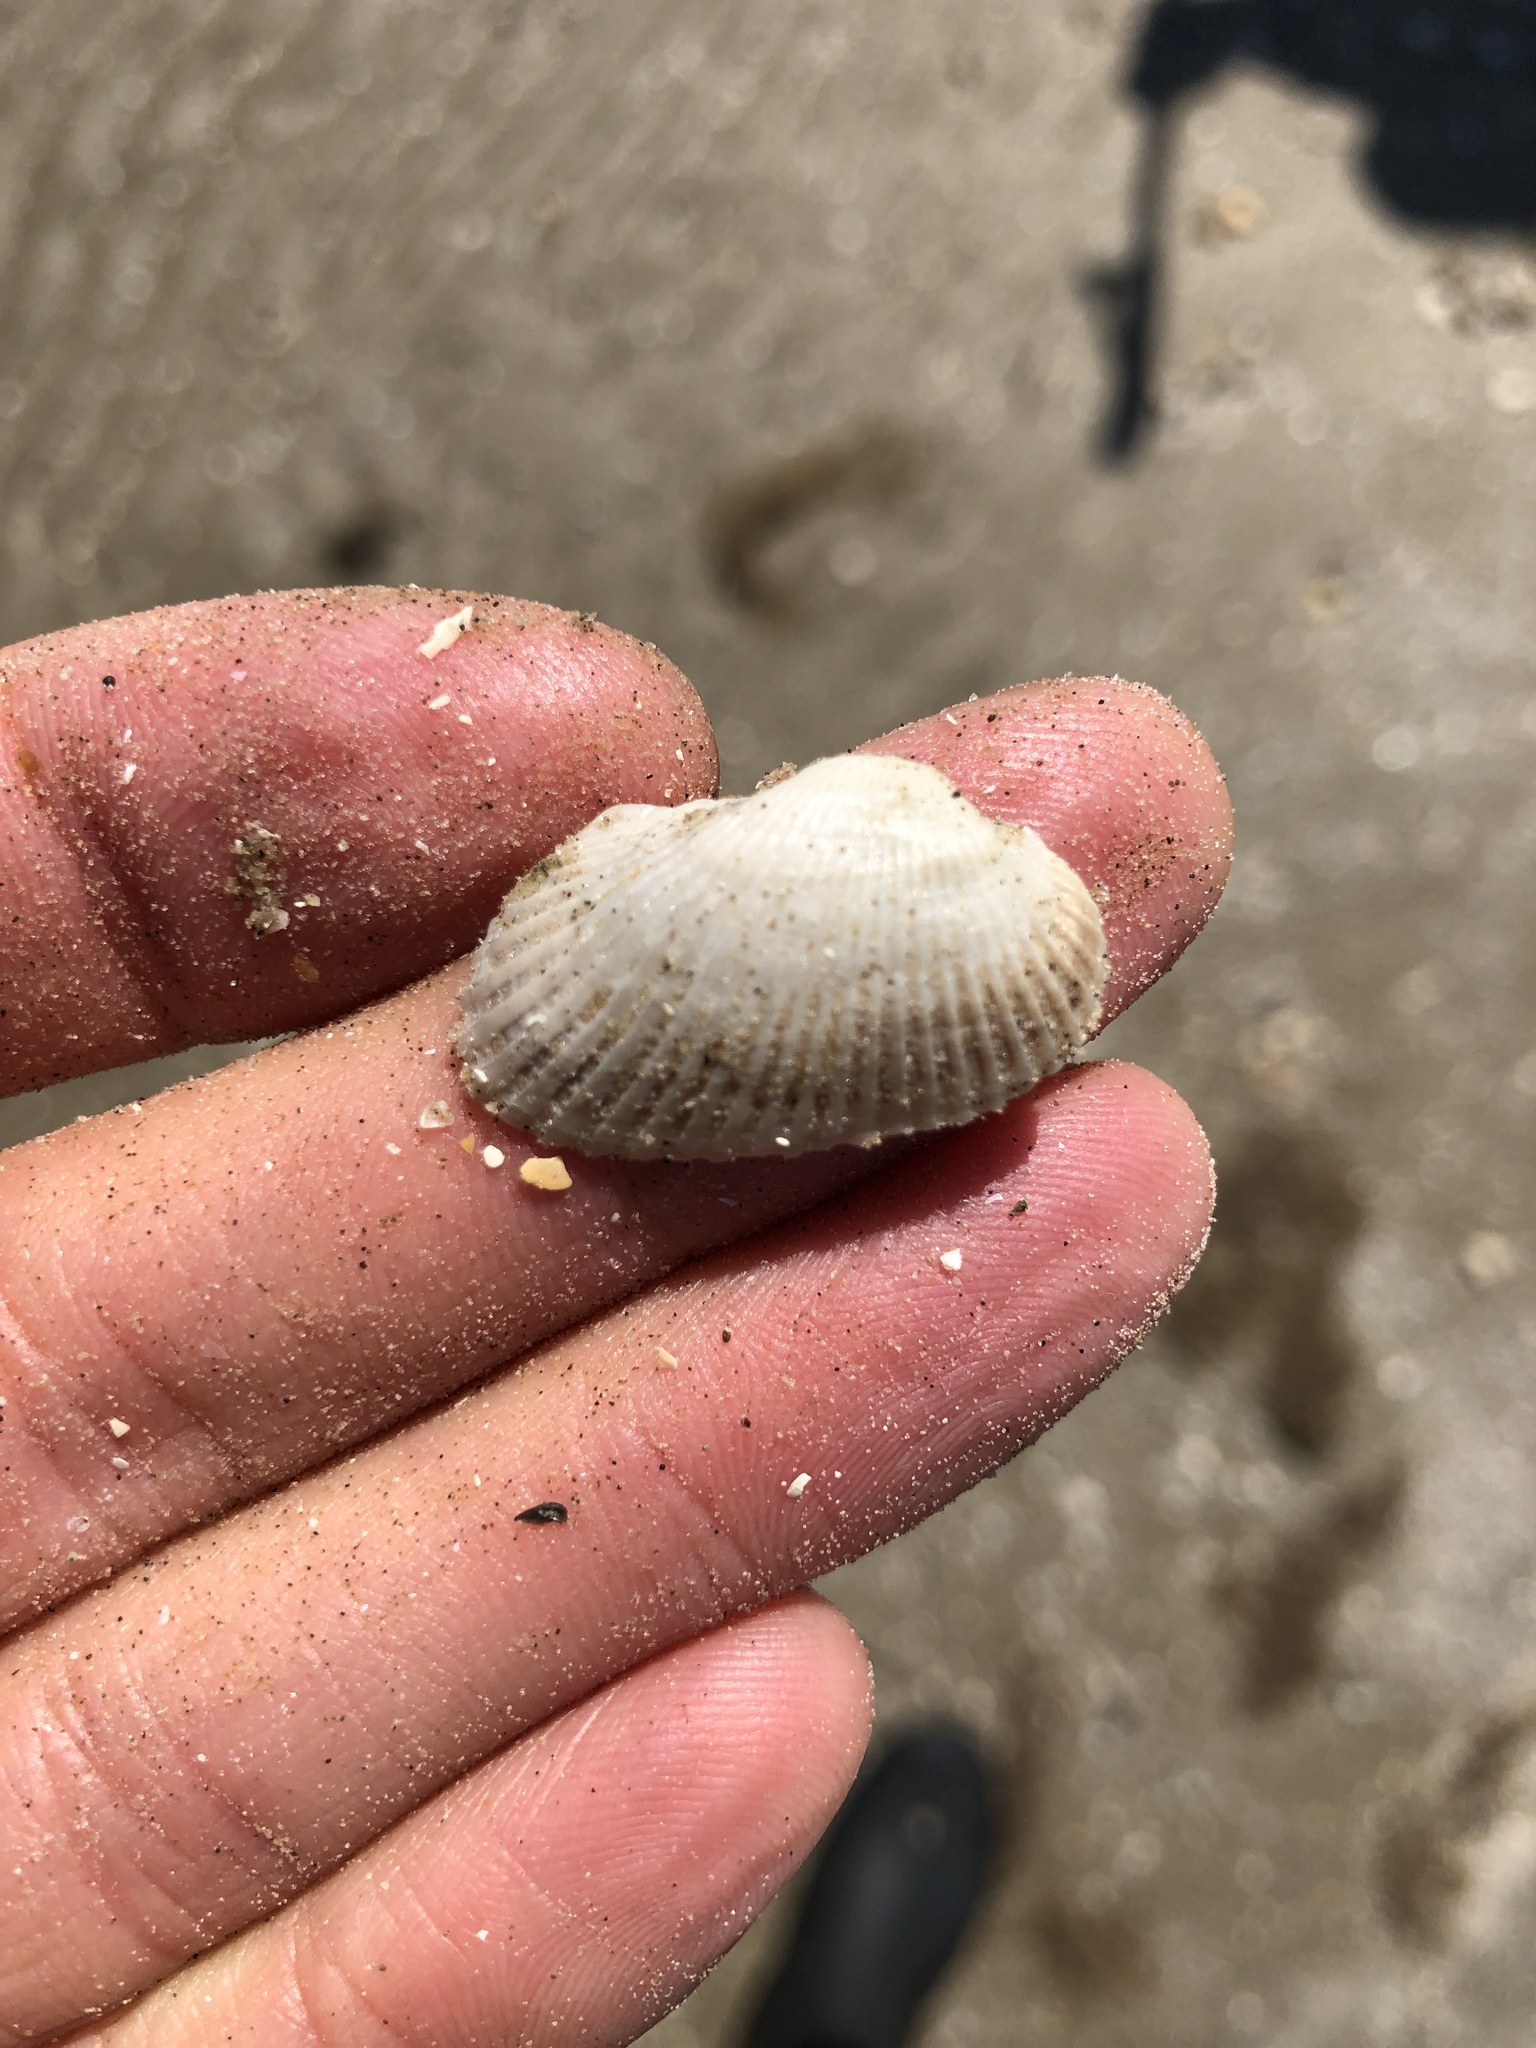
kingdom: Animalia
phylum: Mollusca
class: Bivalvia
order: Arcida
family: Arcidae
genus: Anadara
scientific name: Anadara transversa
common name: Transverse ark
